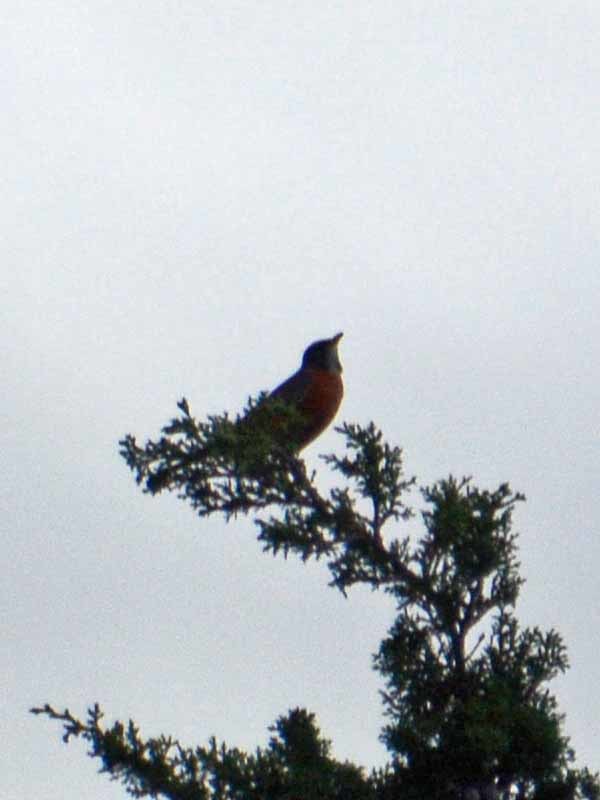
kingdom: Animalia
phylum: Chordata
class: Aves
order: Passeriformes
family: Turdidae
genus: Turdus
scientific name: Turdus migratorius
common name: American robin
